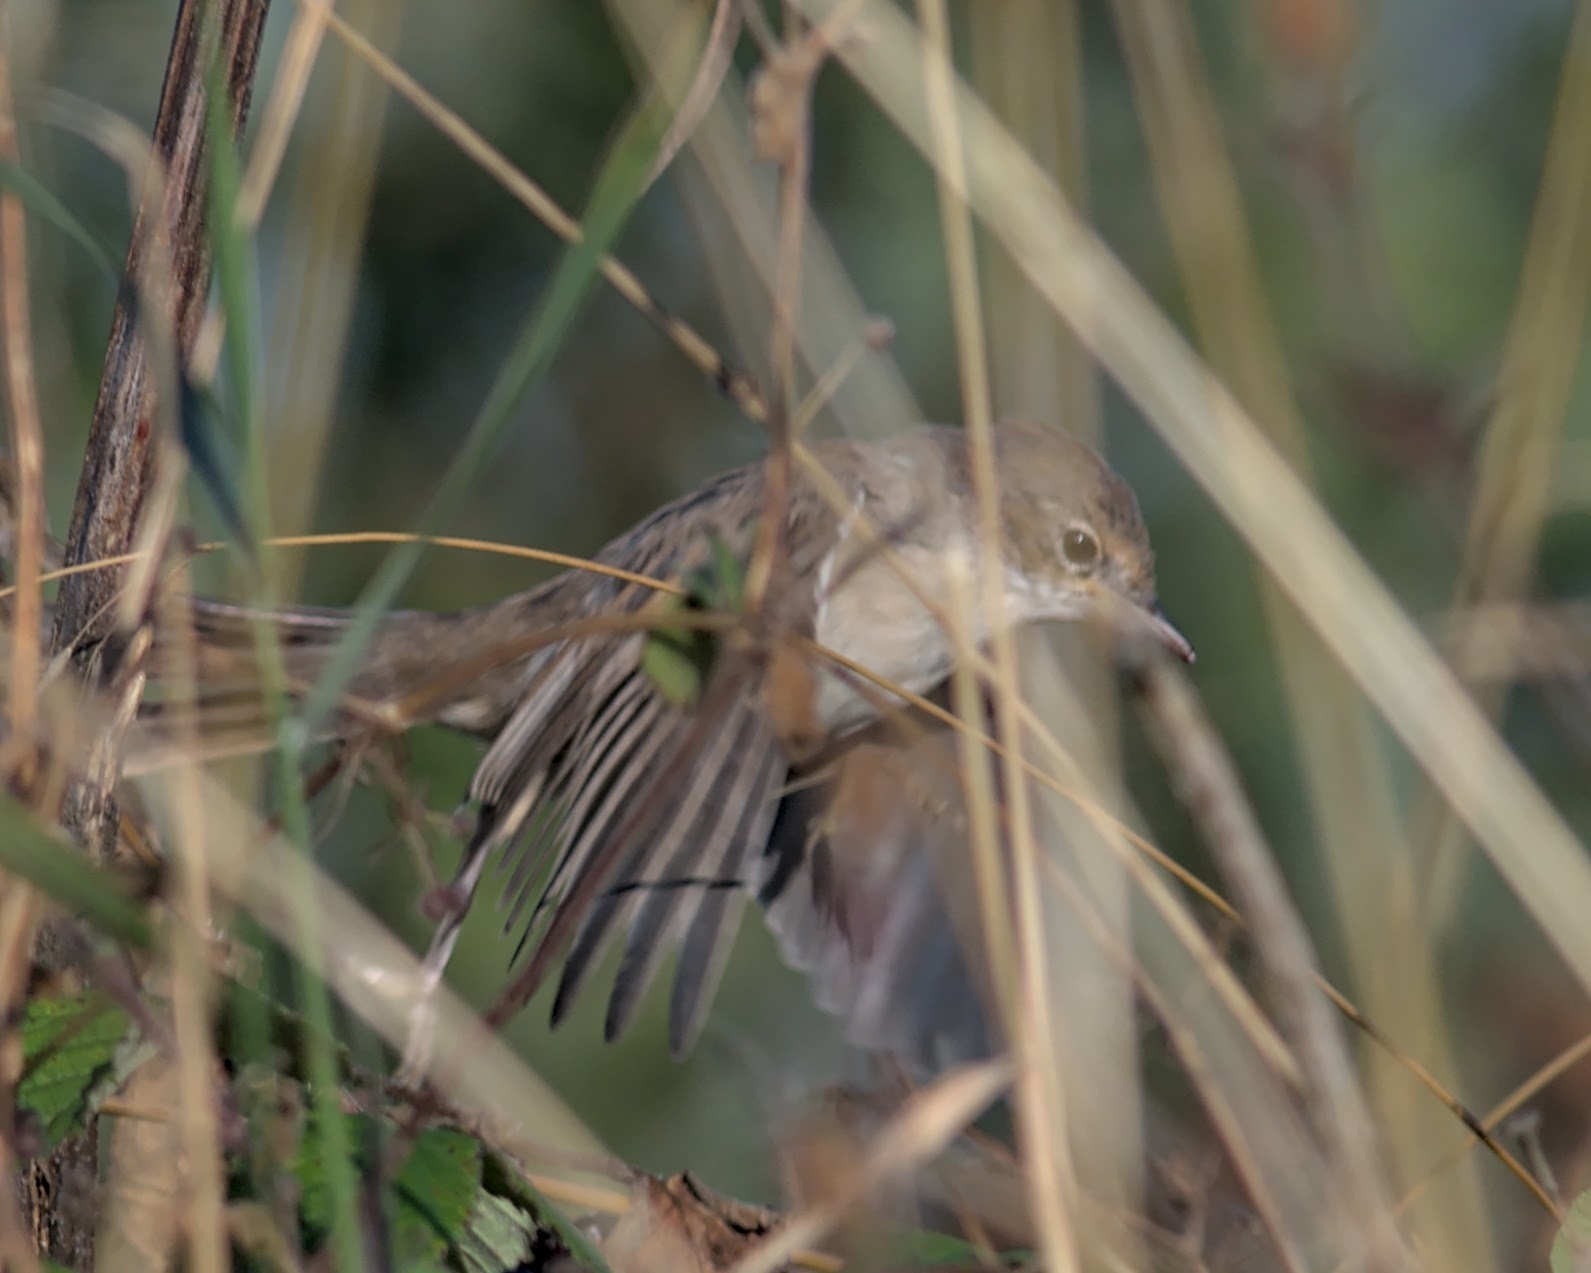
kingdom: Animalia
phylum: Chordata
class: Aves
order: Passeriformes
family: Sylviidae
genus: Sylvia
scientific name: Sylvia communis
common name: Common whitethroat
